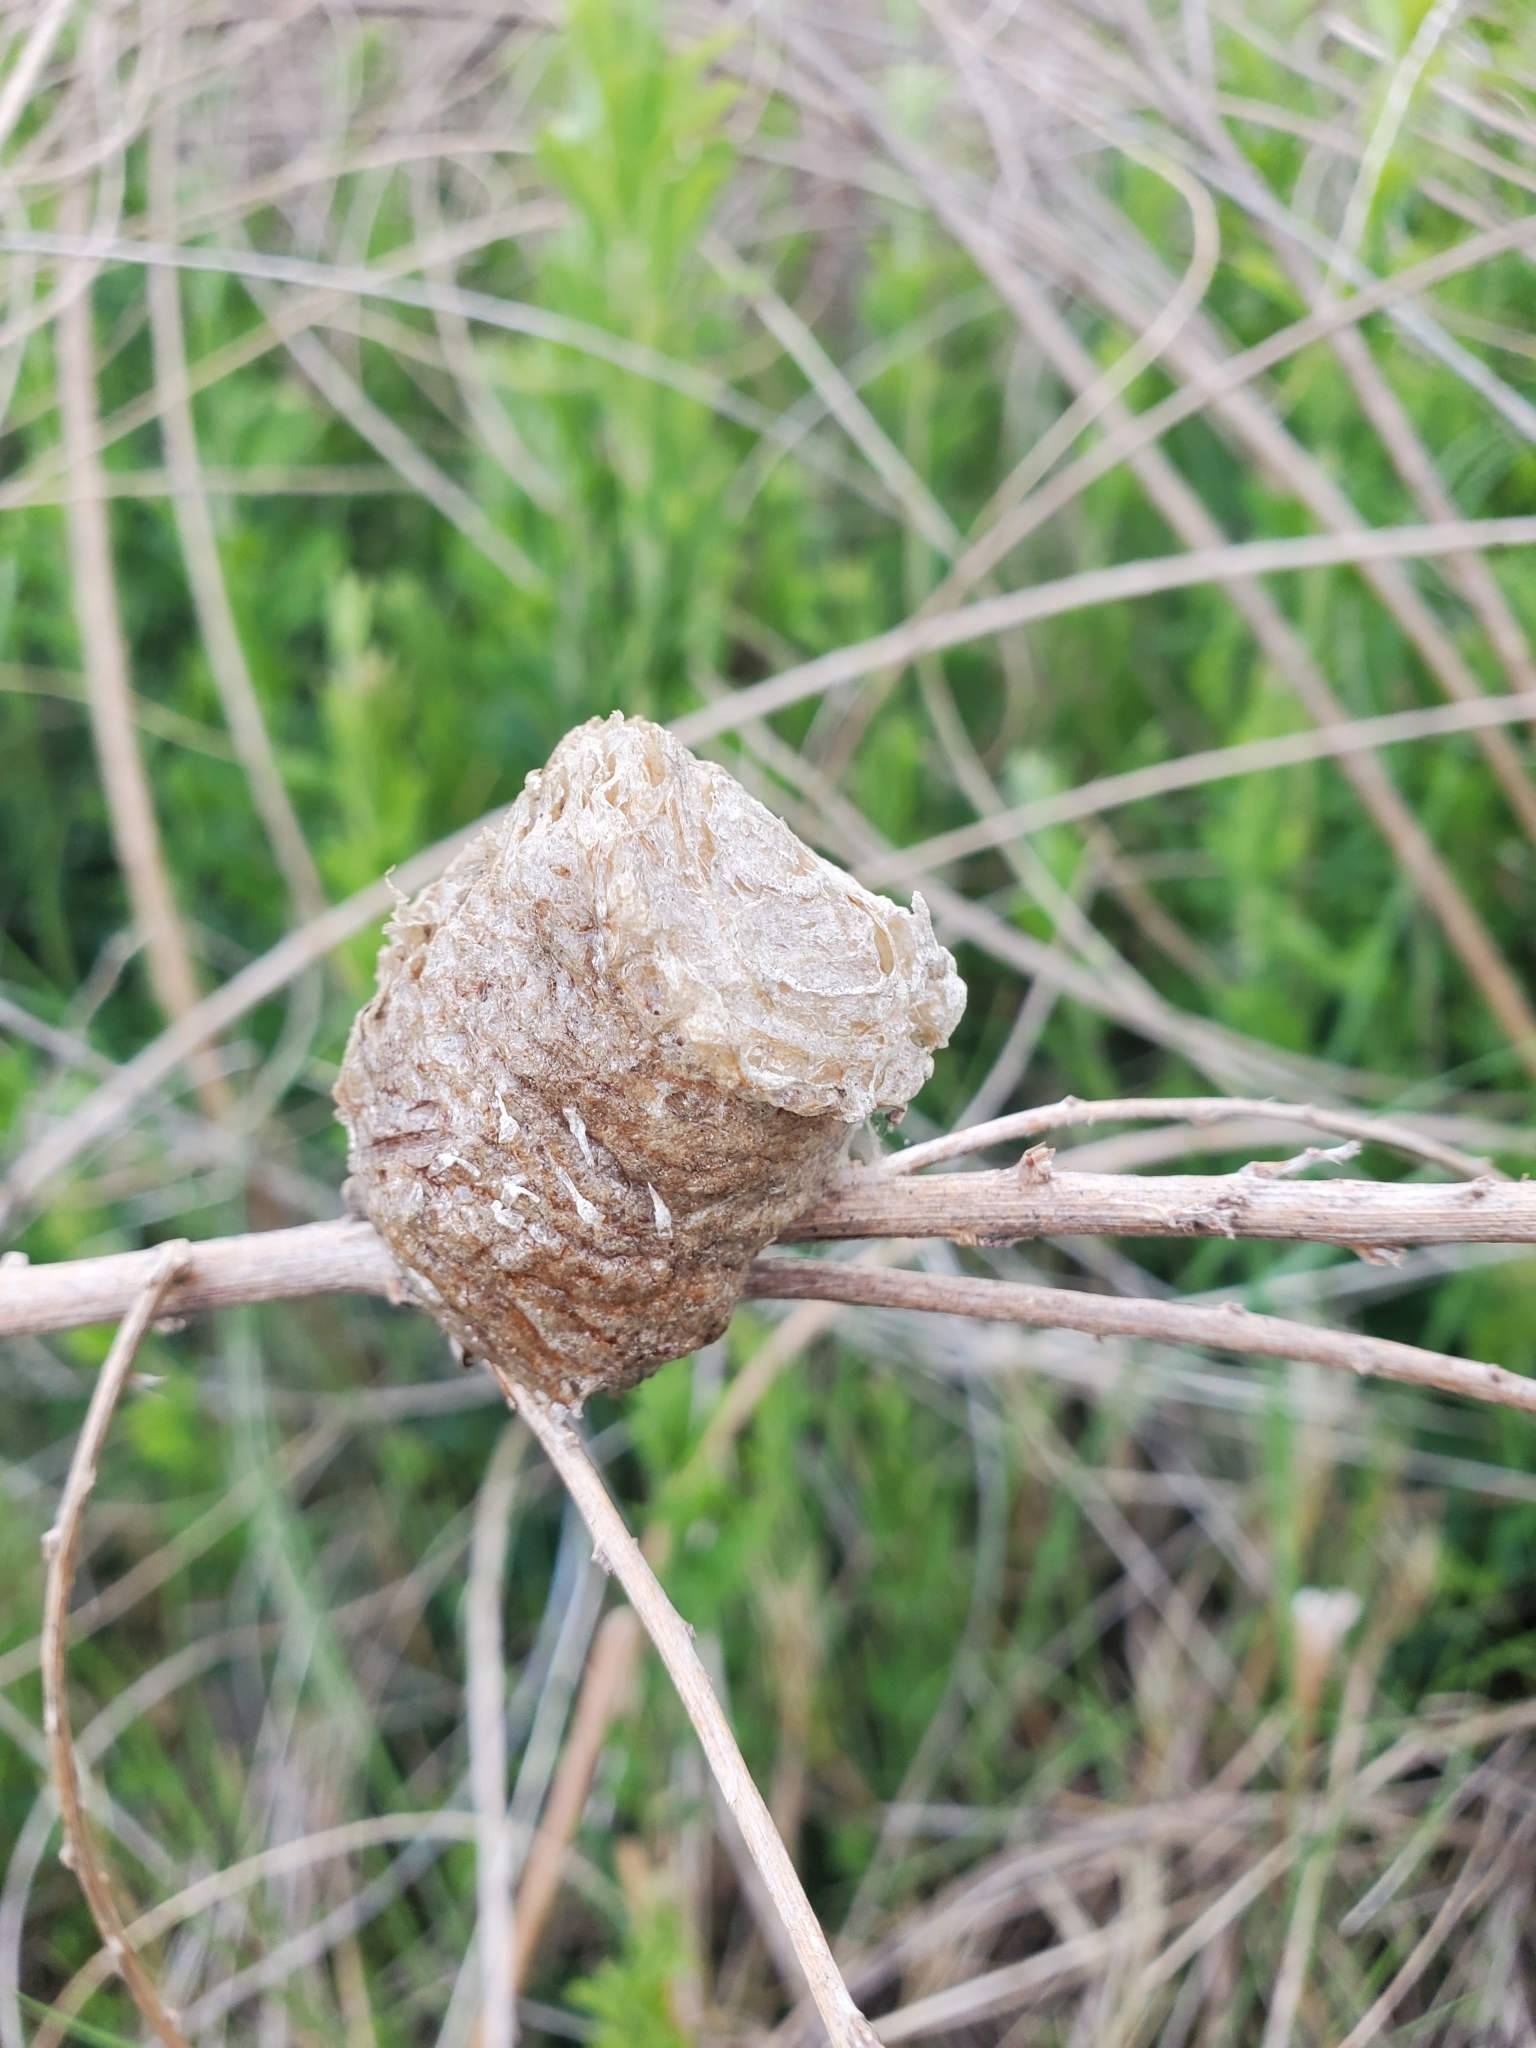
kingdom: Animalia
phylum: Arthropoda
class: Insecta
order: Mantodea
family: Mantidae
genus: Tenodera
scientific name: Tenodera sinensis
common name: Chinese mantis
